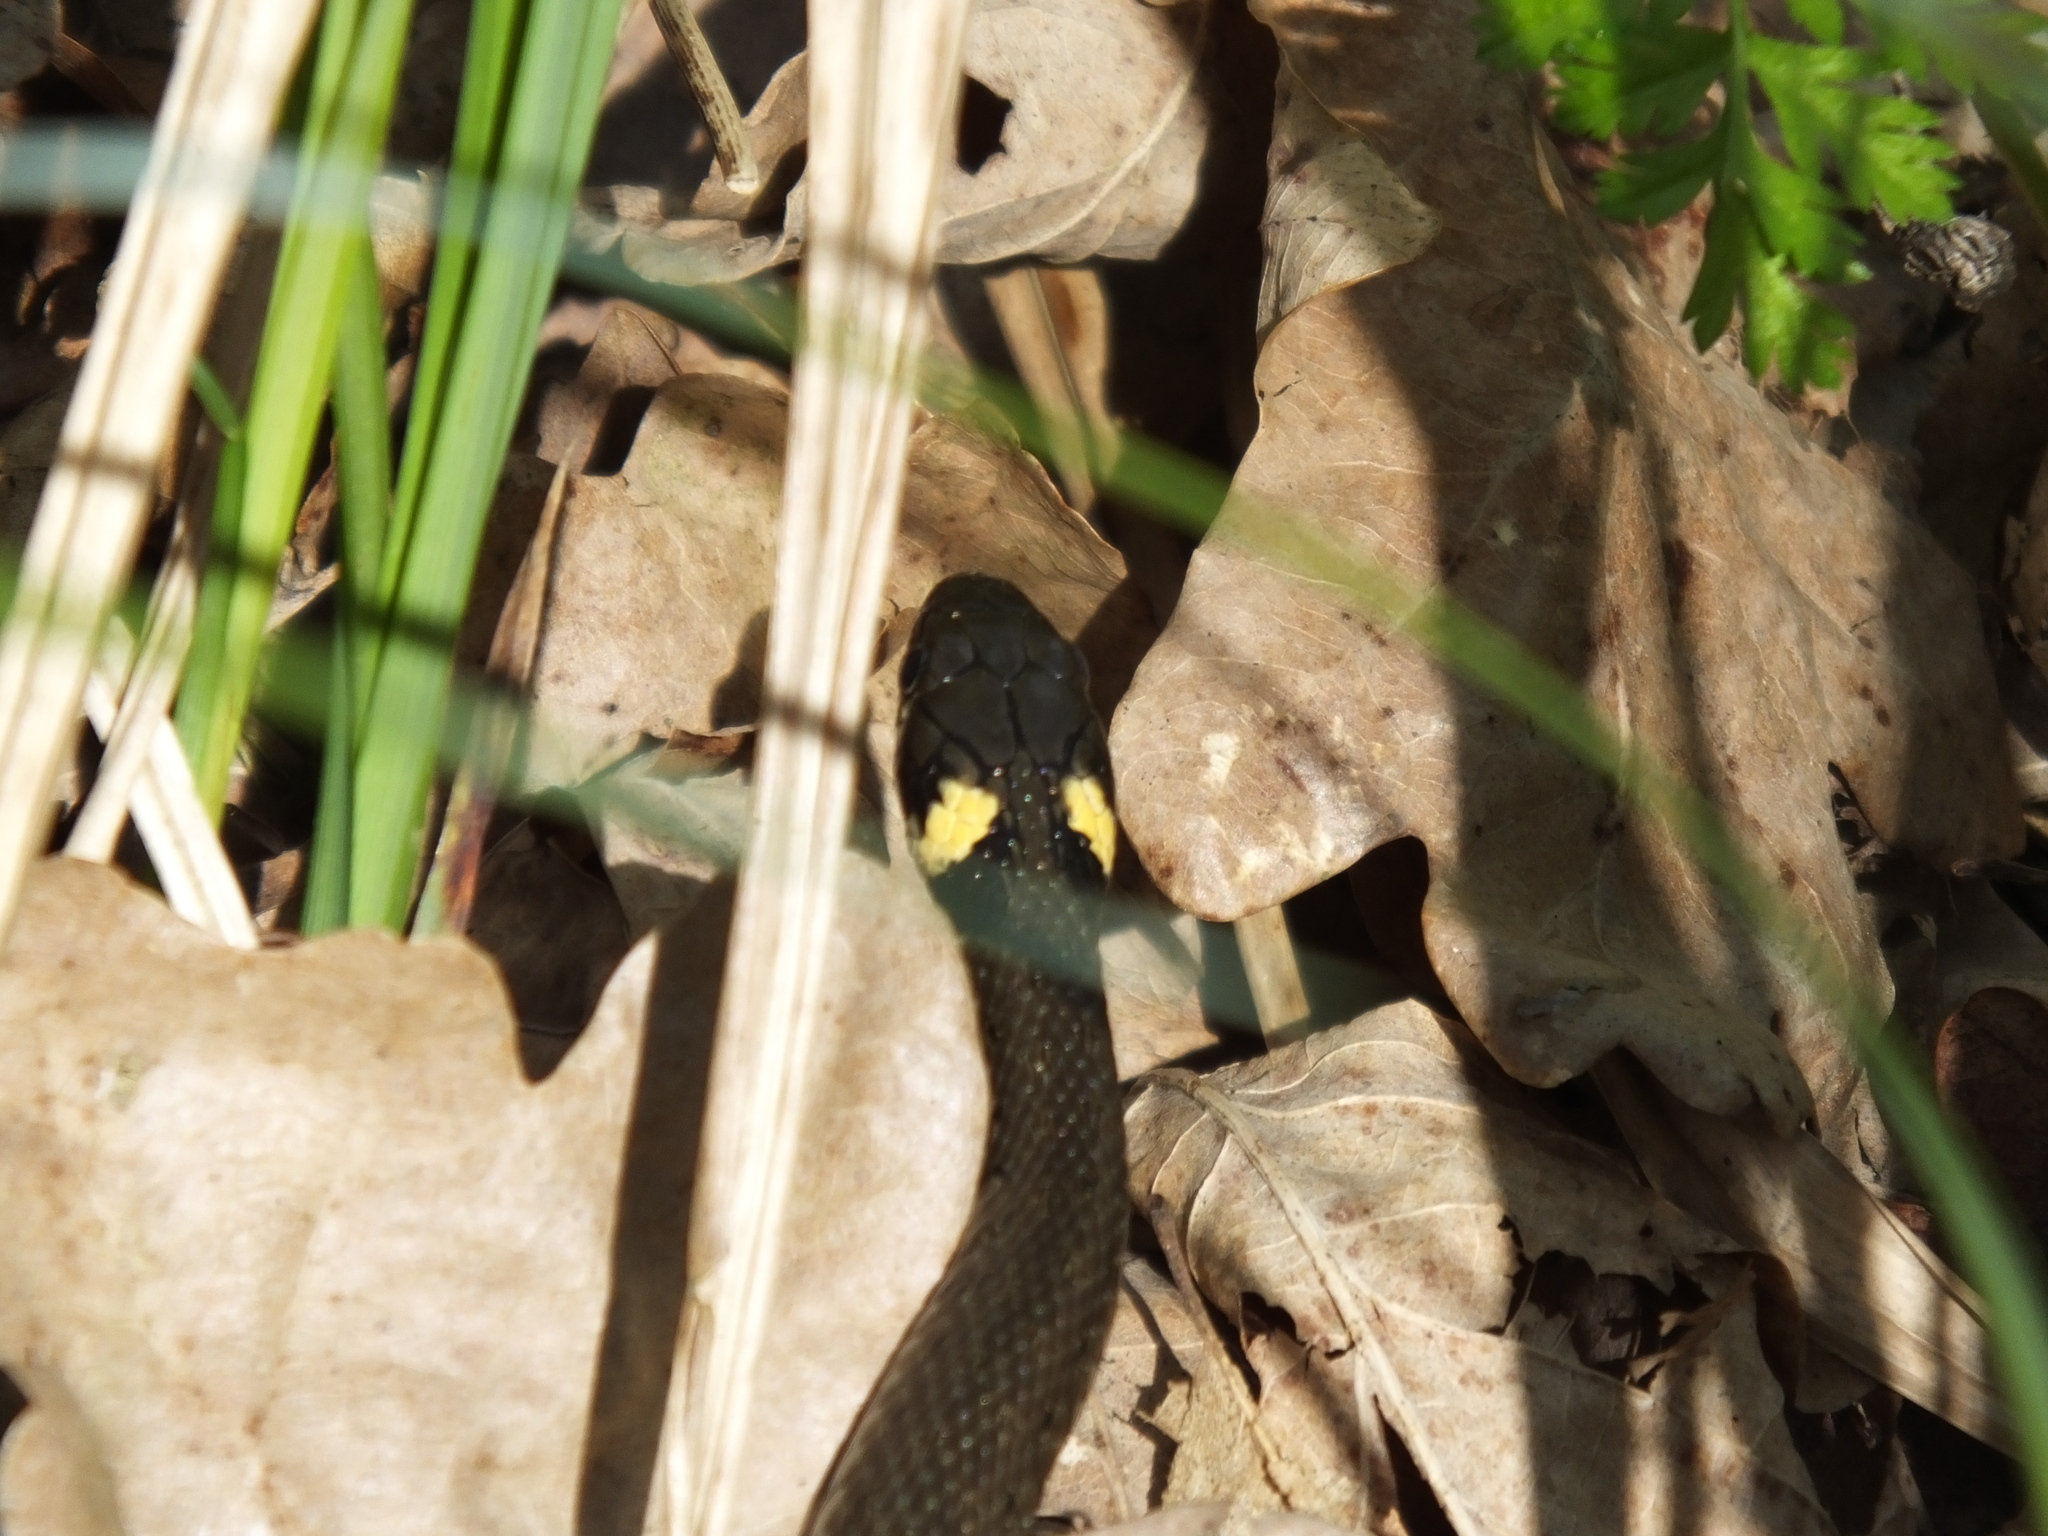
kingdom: Animalia
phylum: Chordata
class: Squamata
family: Colubridae
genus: Natrix
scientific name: Natrix natrix
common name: Grass snake
